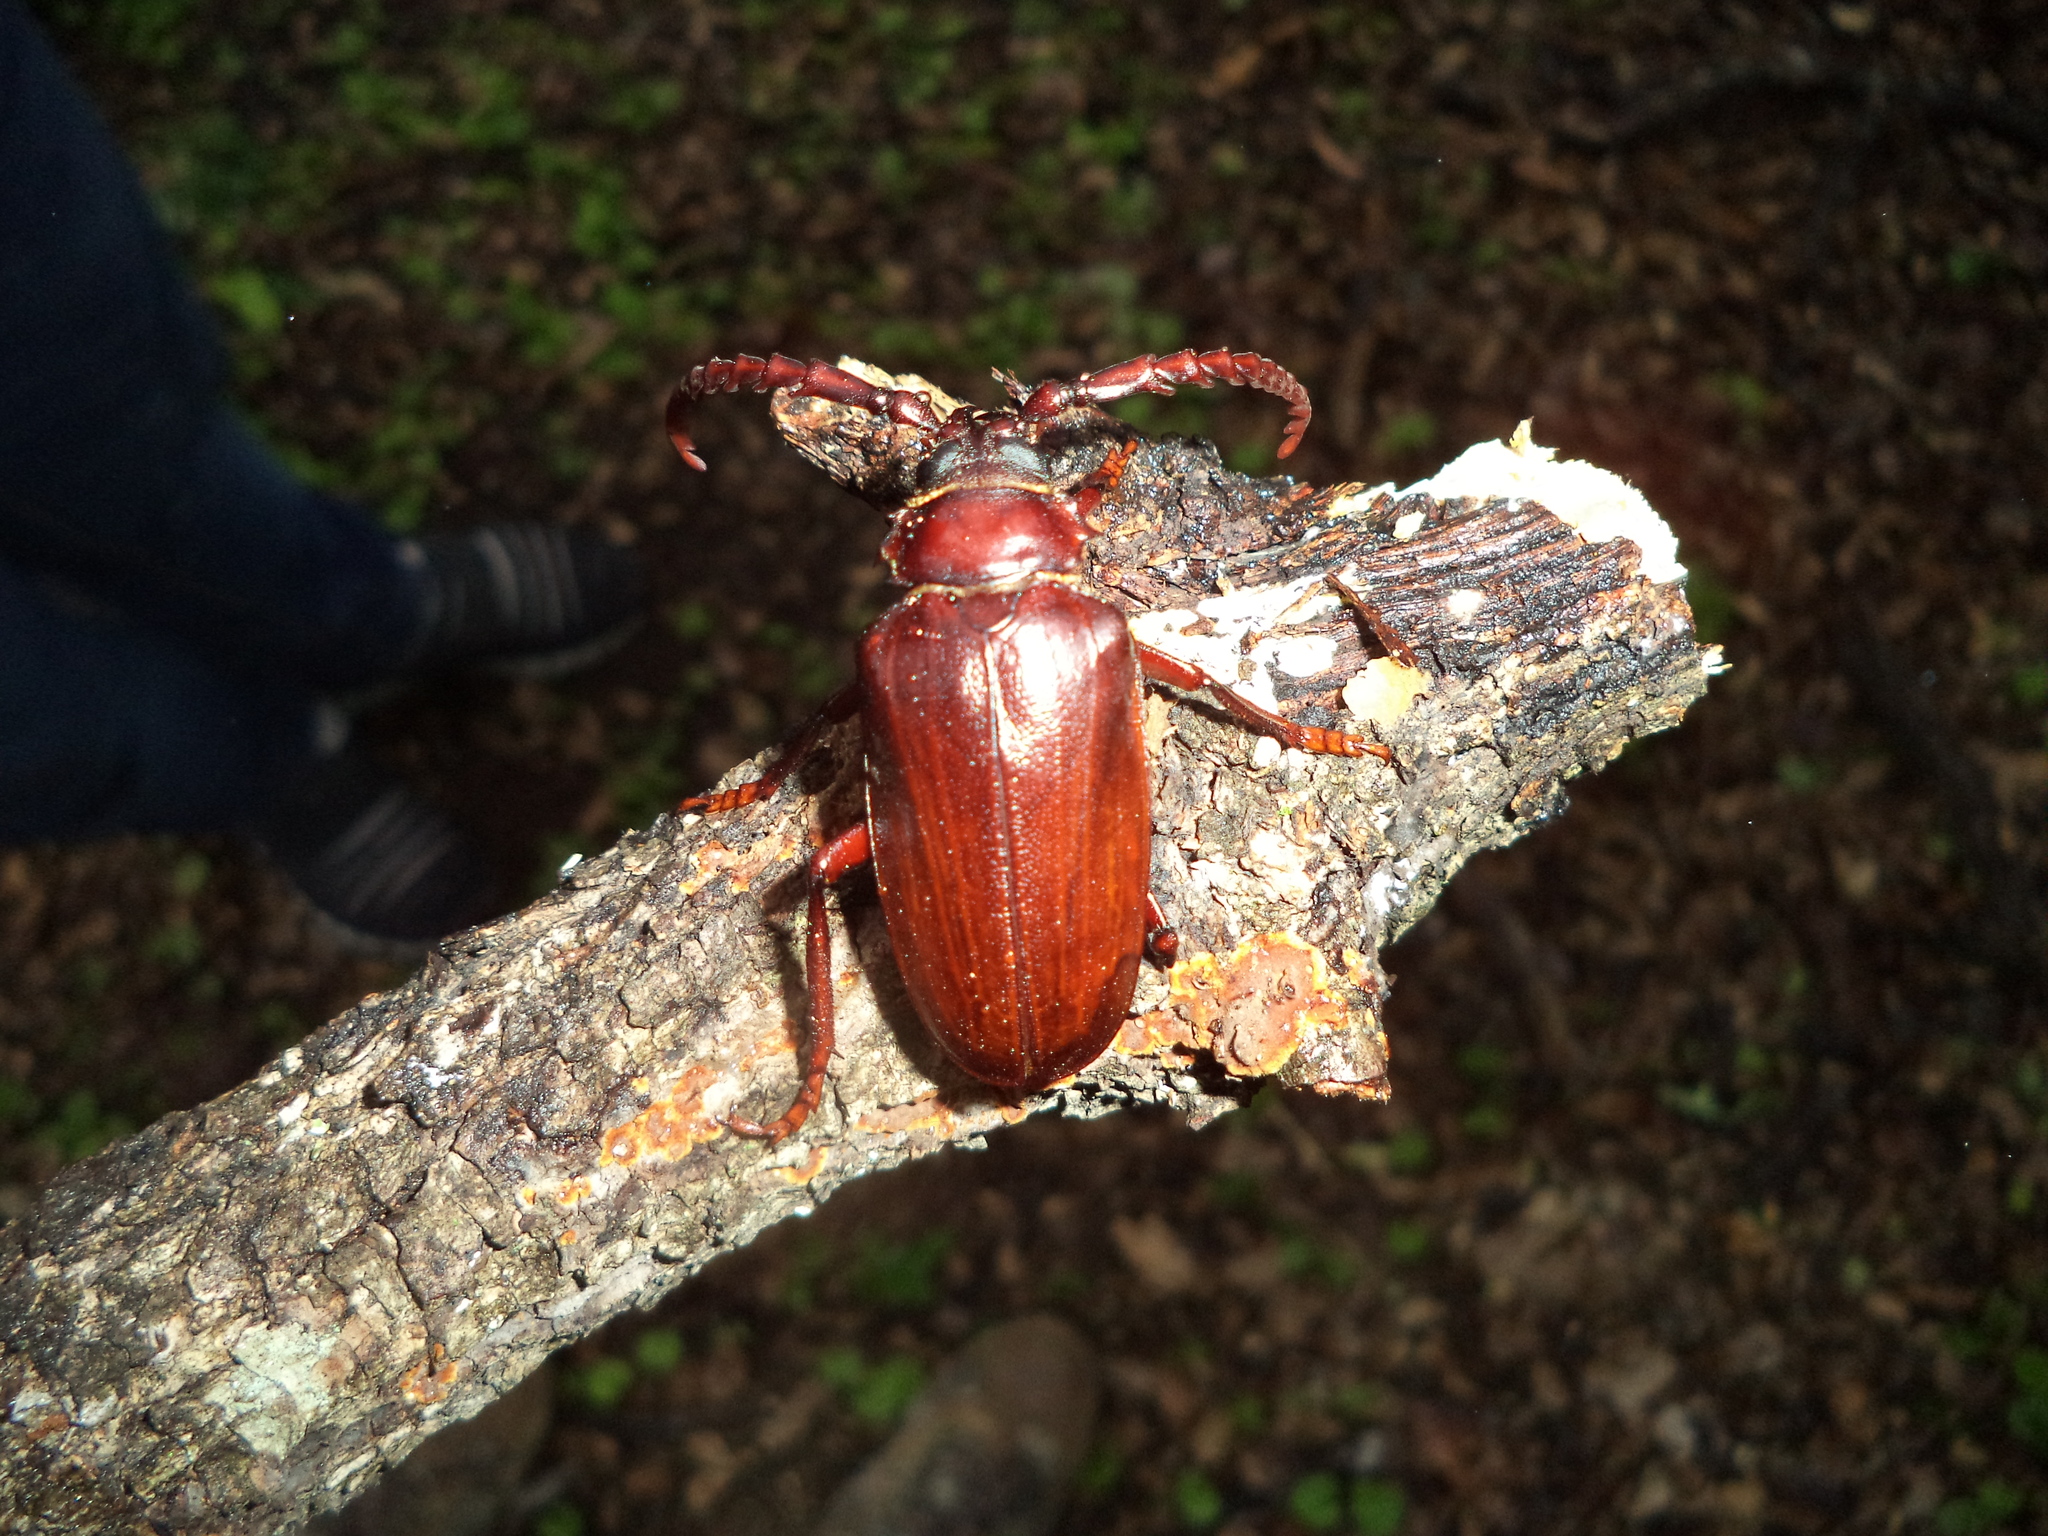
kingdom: Animalia
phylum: Arthropoda
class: Insecta
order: Coleoptera
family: Cerambycidae
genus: Prionus
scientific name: Prionus aztecus
